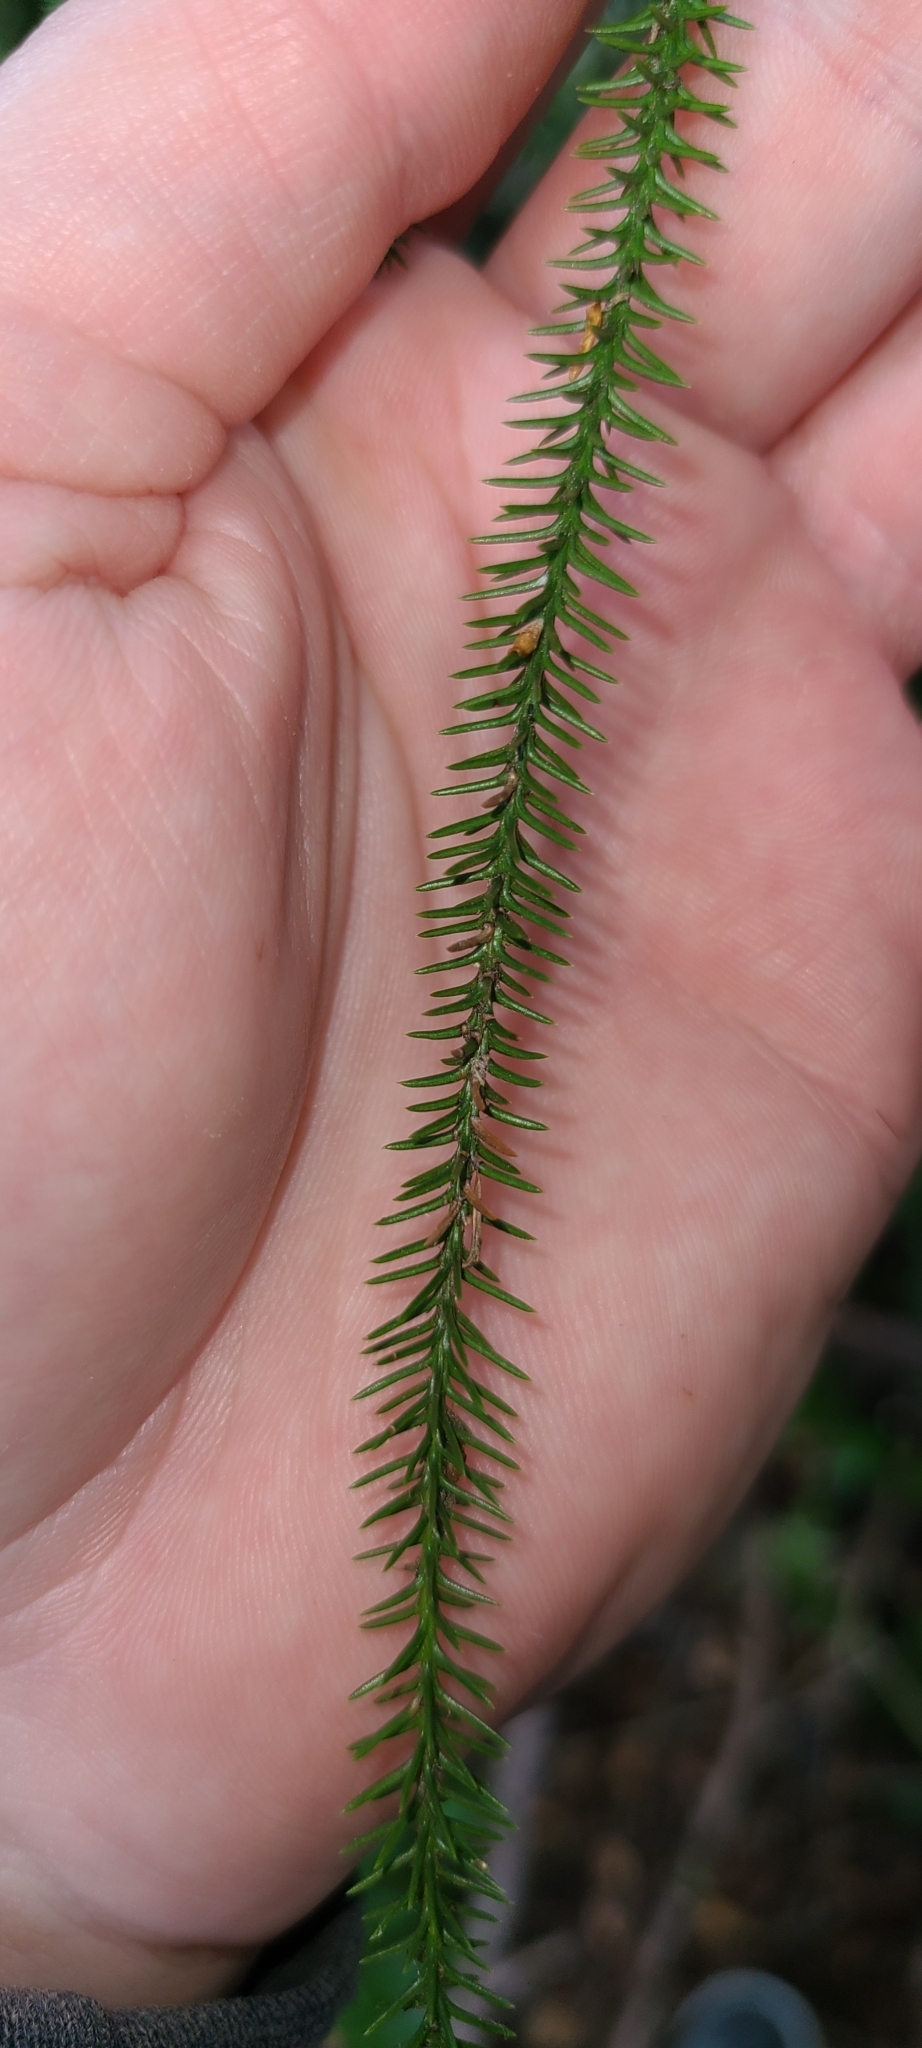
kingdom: Plantae
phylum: Tracheophyta
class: Pinopsida
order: Pinales
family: Podocarpaceae
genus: Dacrydium
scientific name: Dacrydium cupressinum
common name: Red pine
